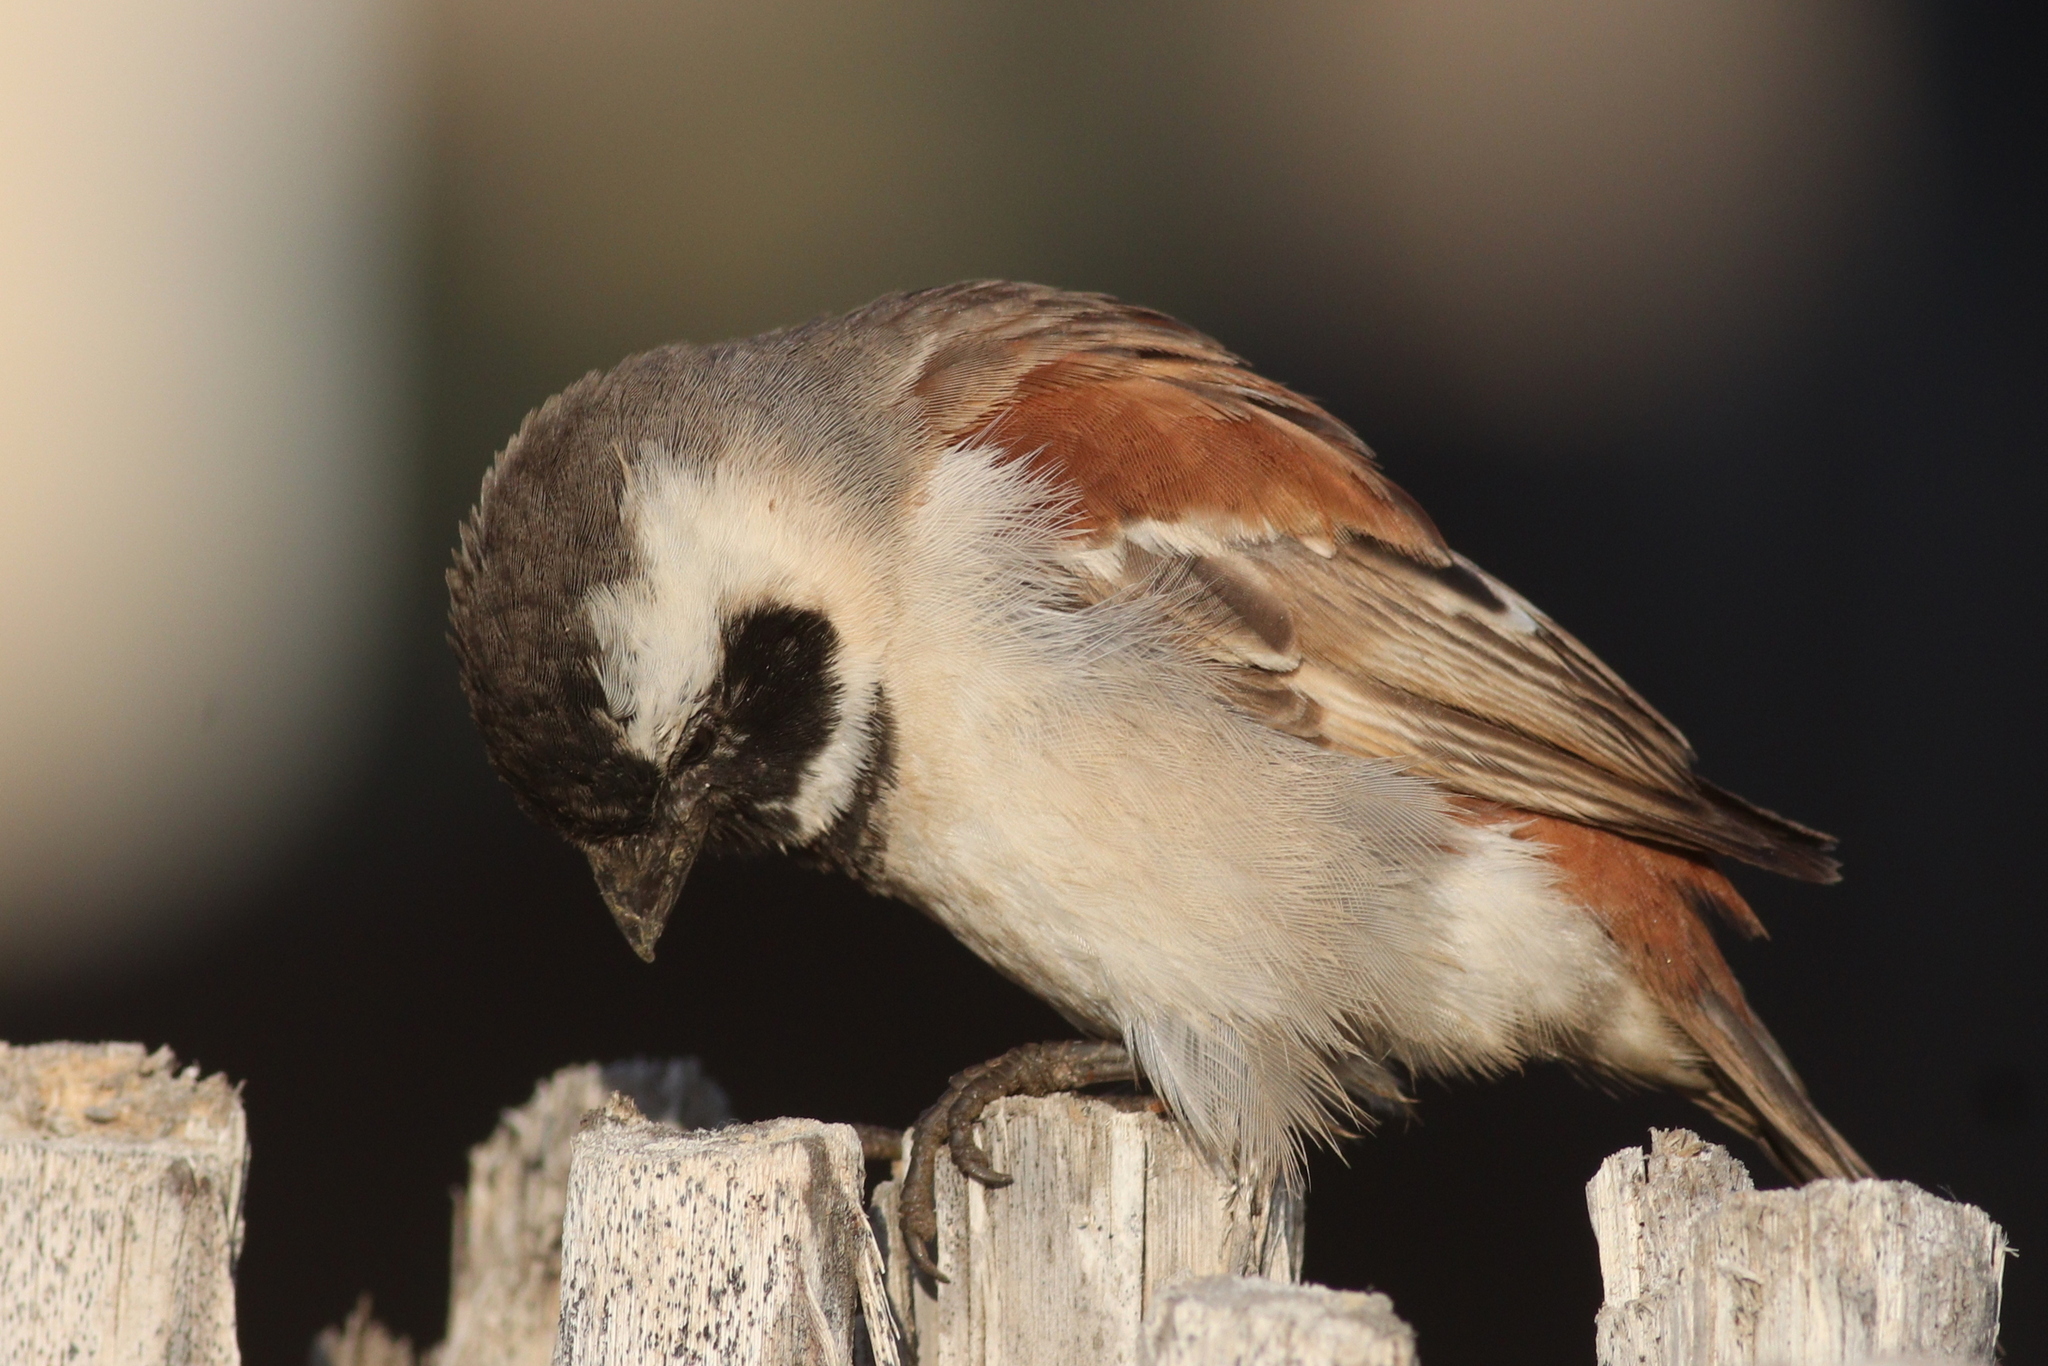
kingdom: Animalia
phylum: Chordata
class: Aves
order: Passeriformes
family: Passeridae
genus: Passer
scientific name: Passer melanurus
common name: Cape sparrow
